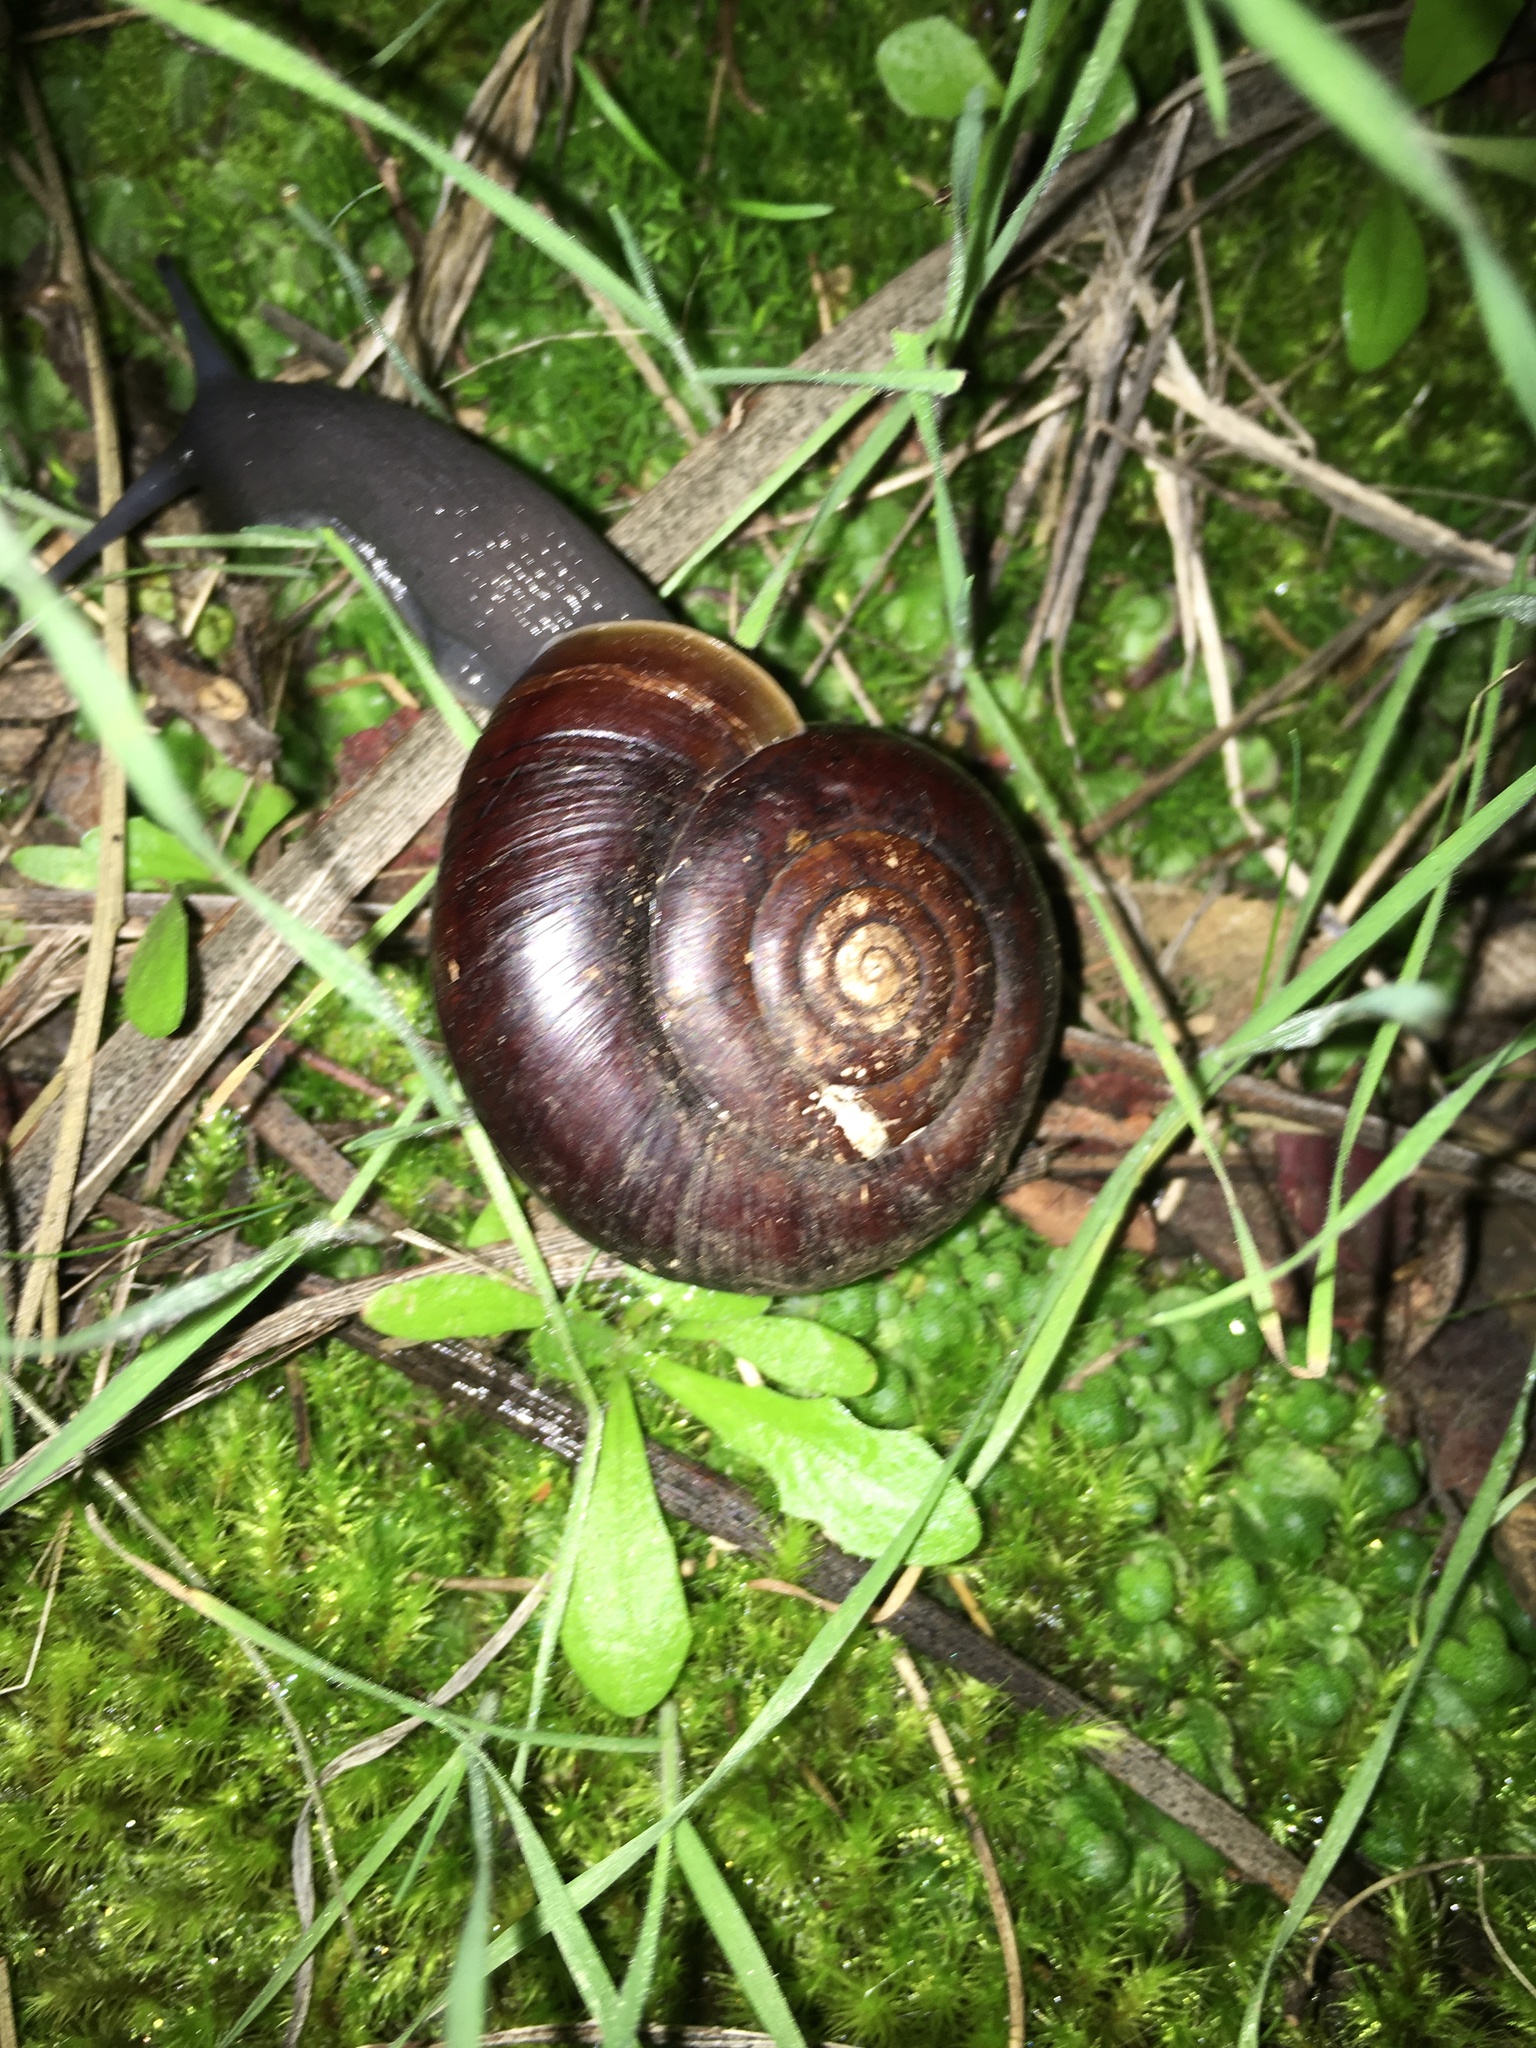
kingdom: Animalia
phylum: Mollusca
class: Gastropoda
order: Stylommatophora
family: Megomphicidae
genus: Glyptostoma
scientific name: Glyptostoma newberryanum
